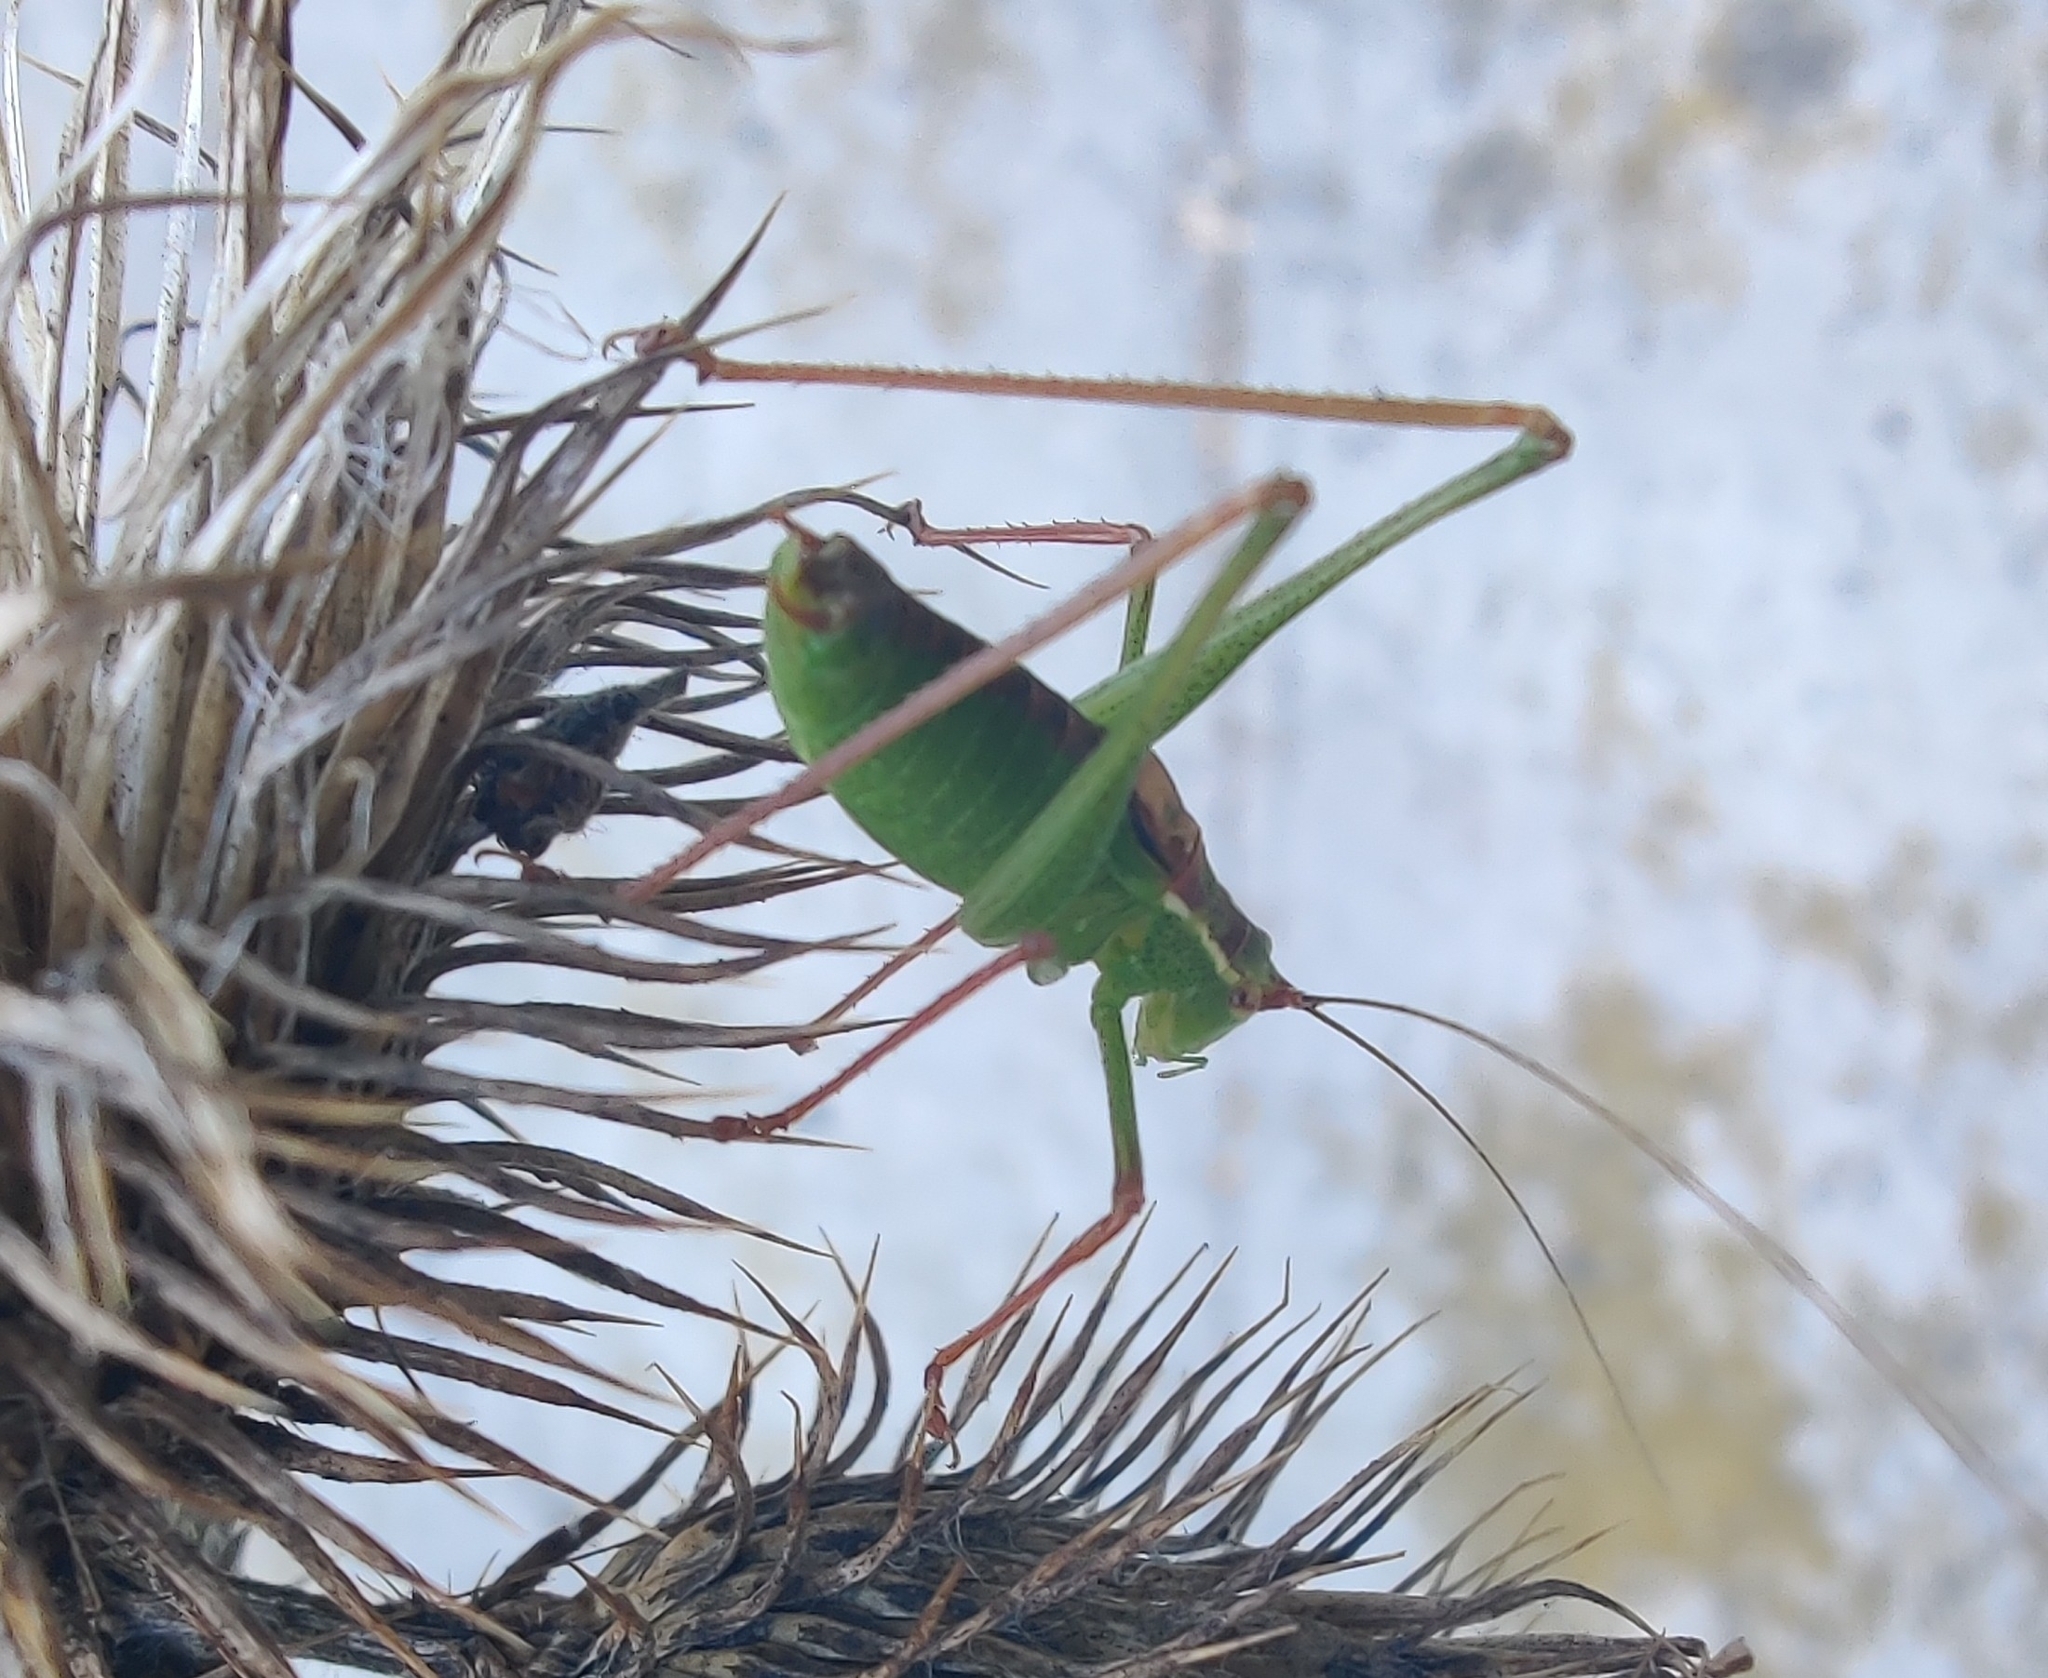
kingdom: Animalia
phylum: Arthropoda
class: Insecta
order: Orthoptera
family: Tettigoniidae
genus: Leptophyes
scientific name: Leptophyes punctatissima
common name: Speckled bush-cricket
